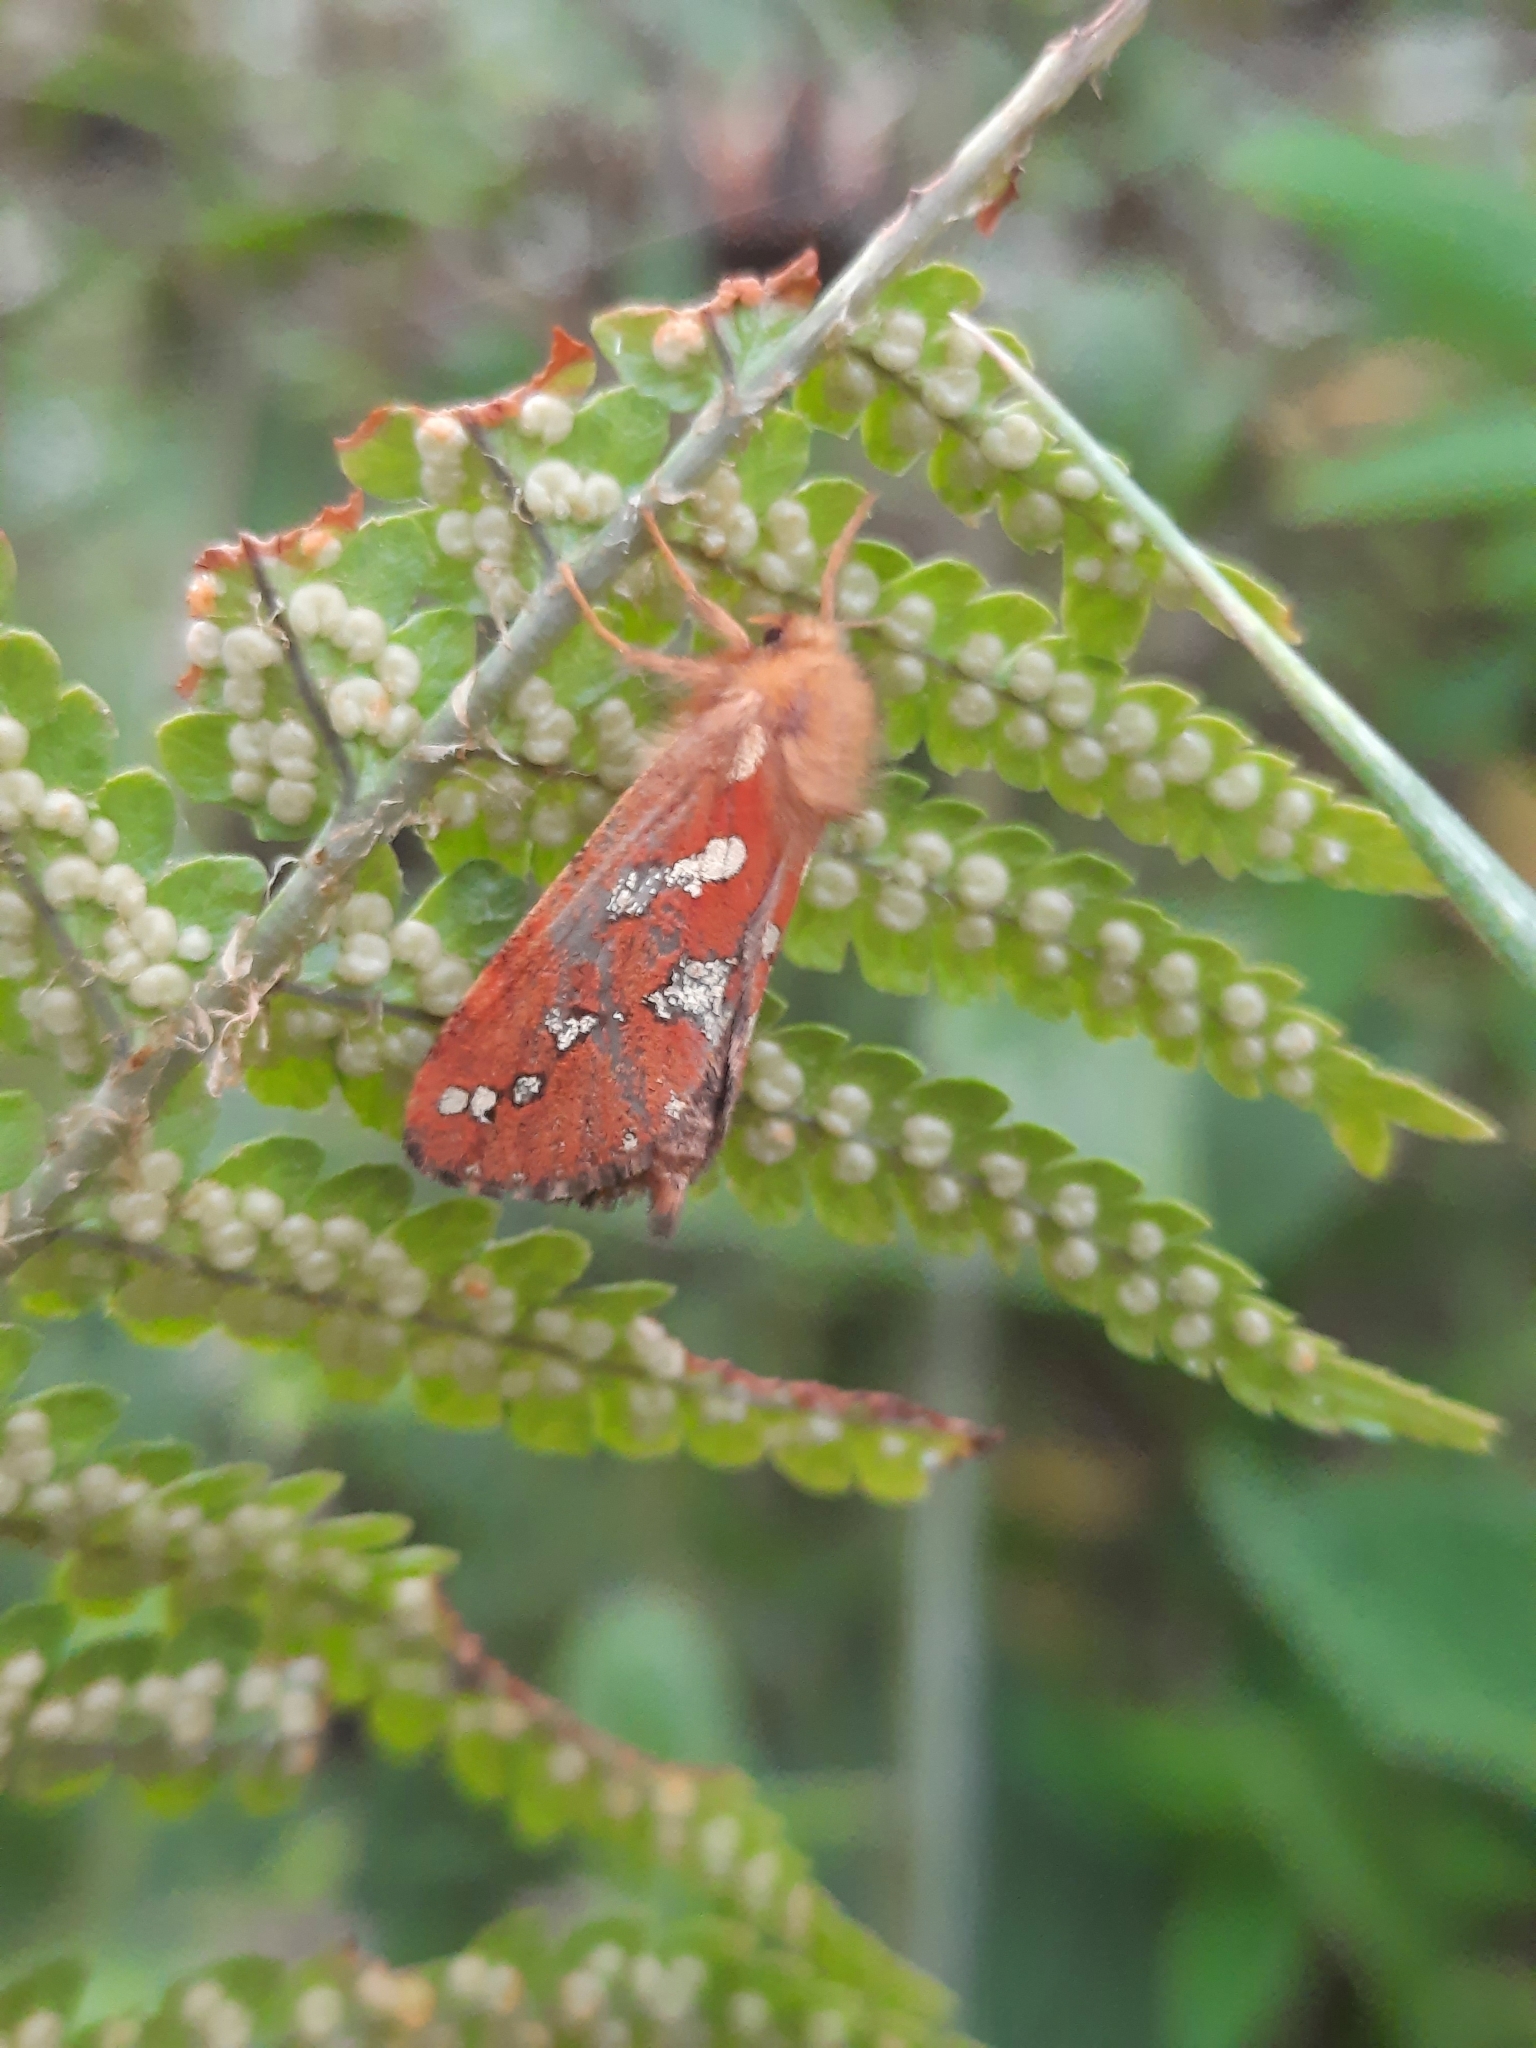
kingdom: Animalia
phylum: Arthropoda
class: Insecta
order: Lepidoptera
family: Hepialidae
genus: Phymatopus
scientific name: Phymatopus hecta
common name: Gold swift
